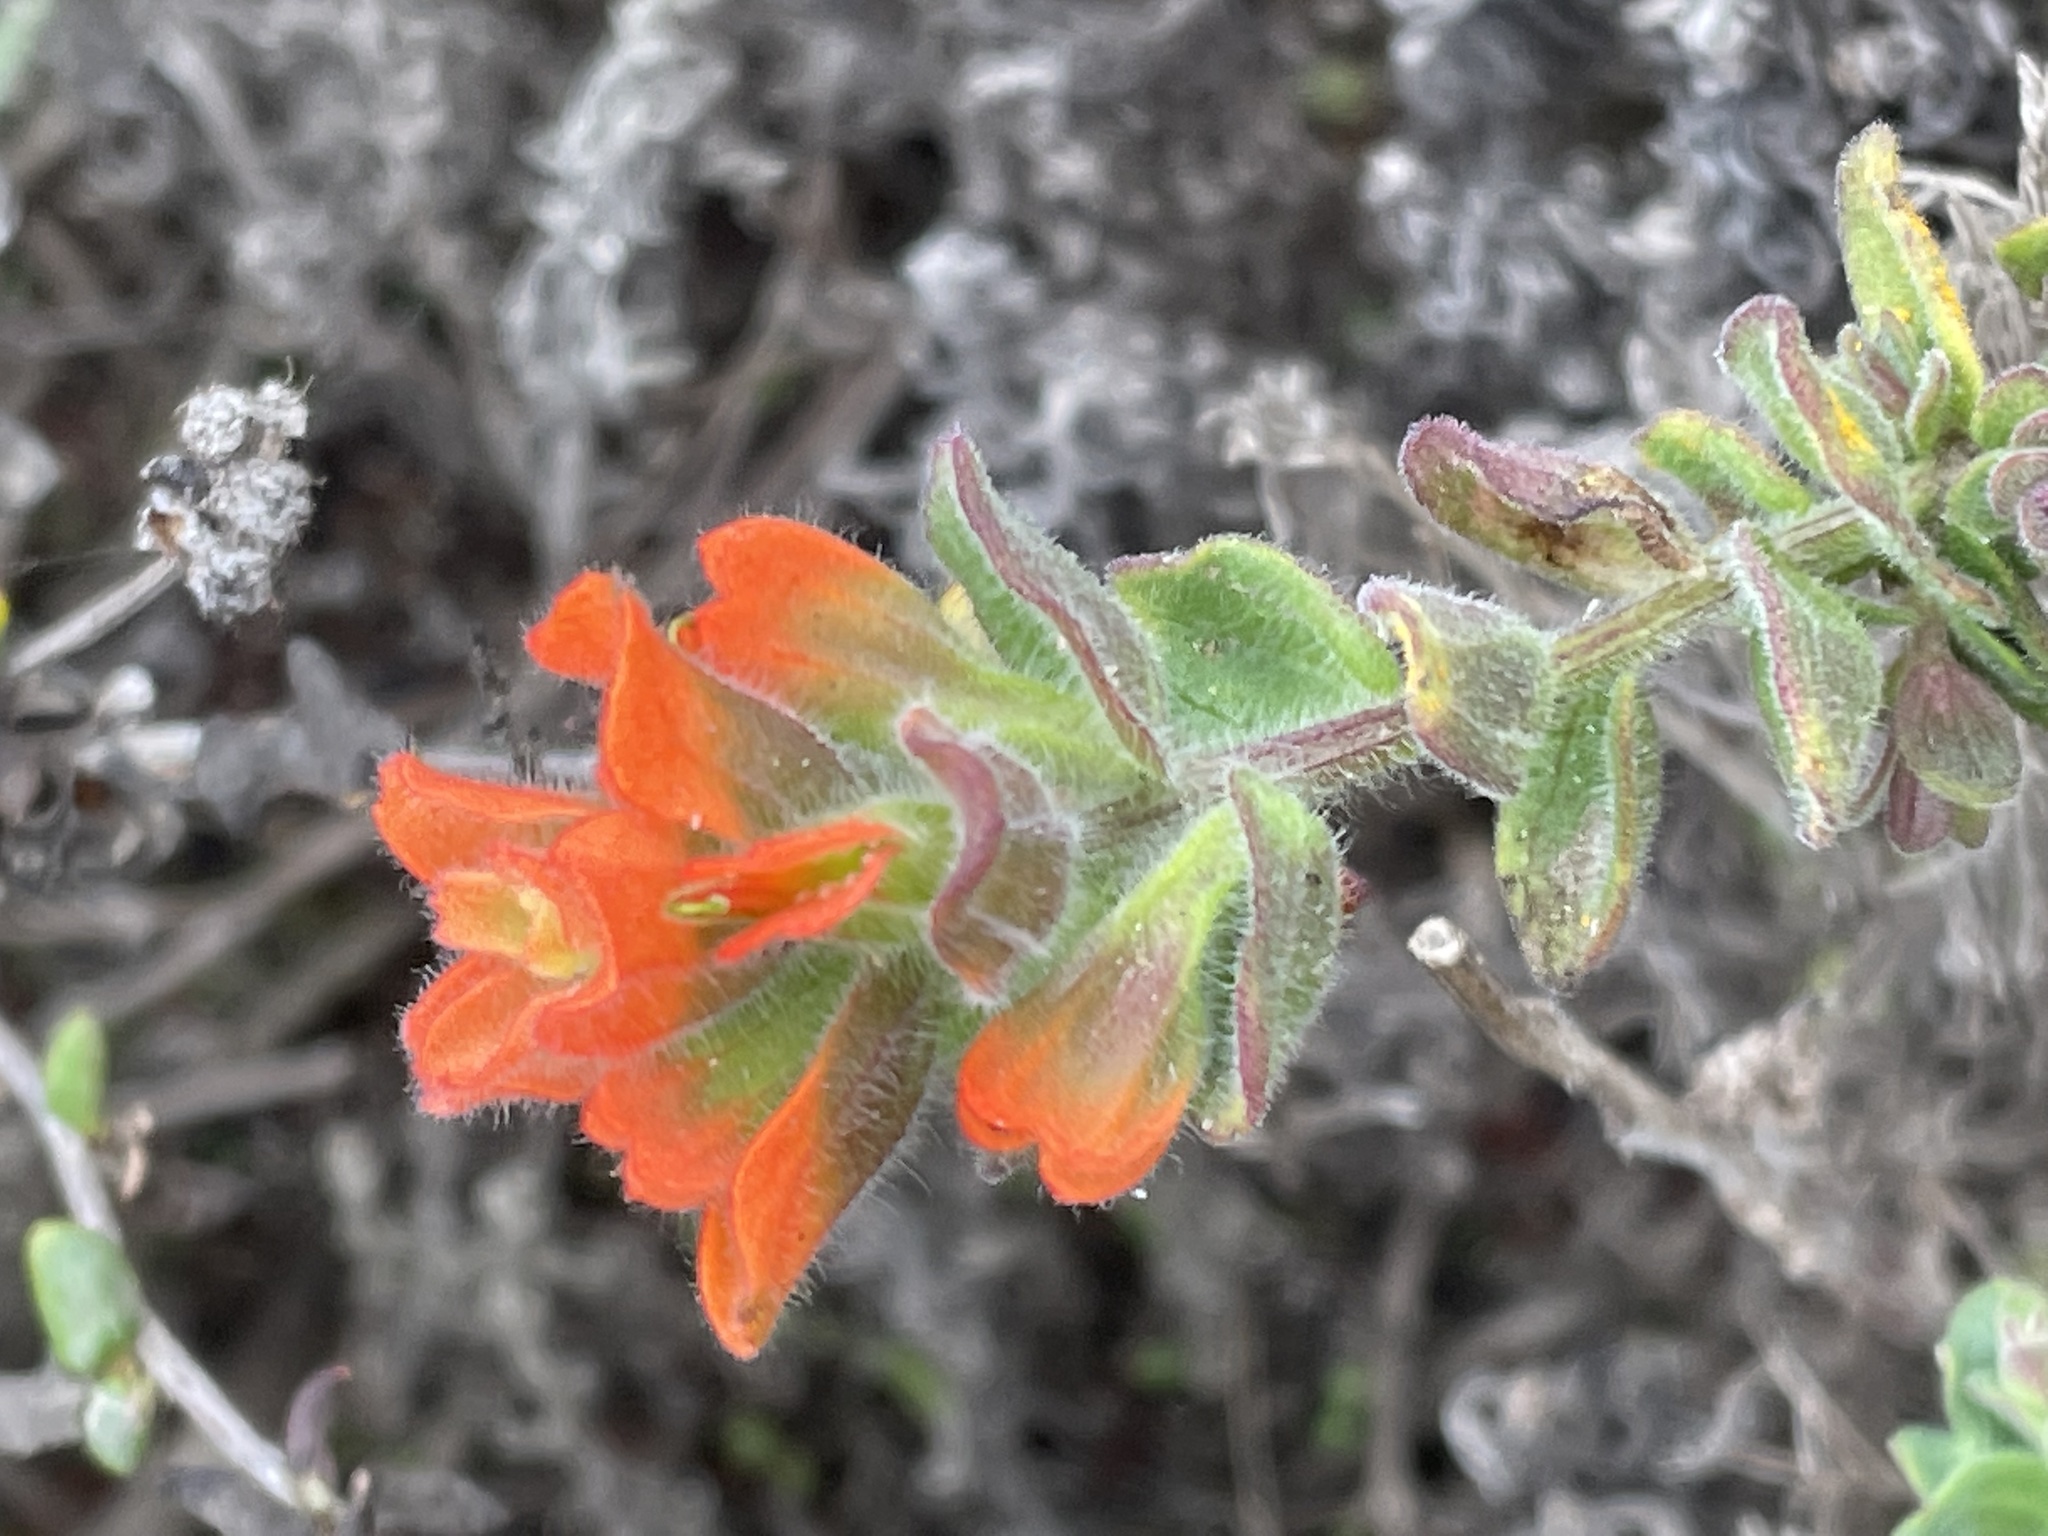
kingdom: Plantae
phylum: Tracheophyta
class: Magnoliopsida
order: Lamiales
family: Orobanchaceae
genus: Castilleja
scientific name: Castilleja latifolia
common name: Monterey indian paintbrush
